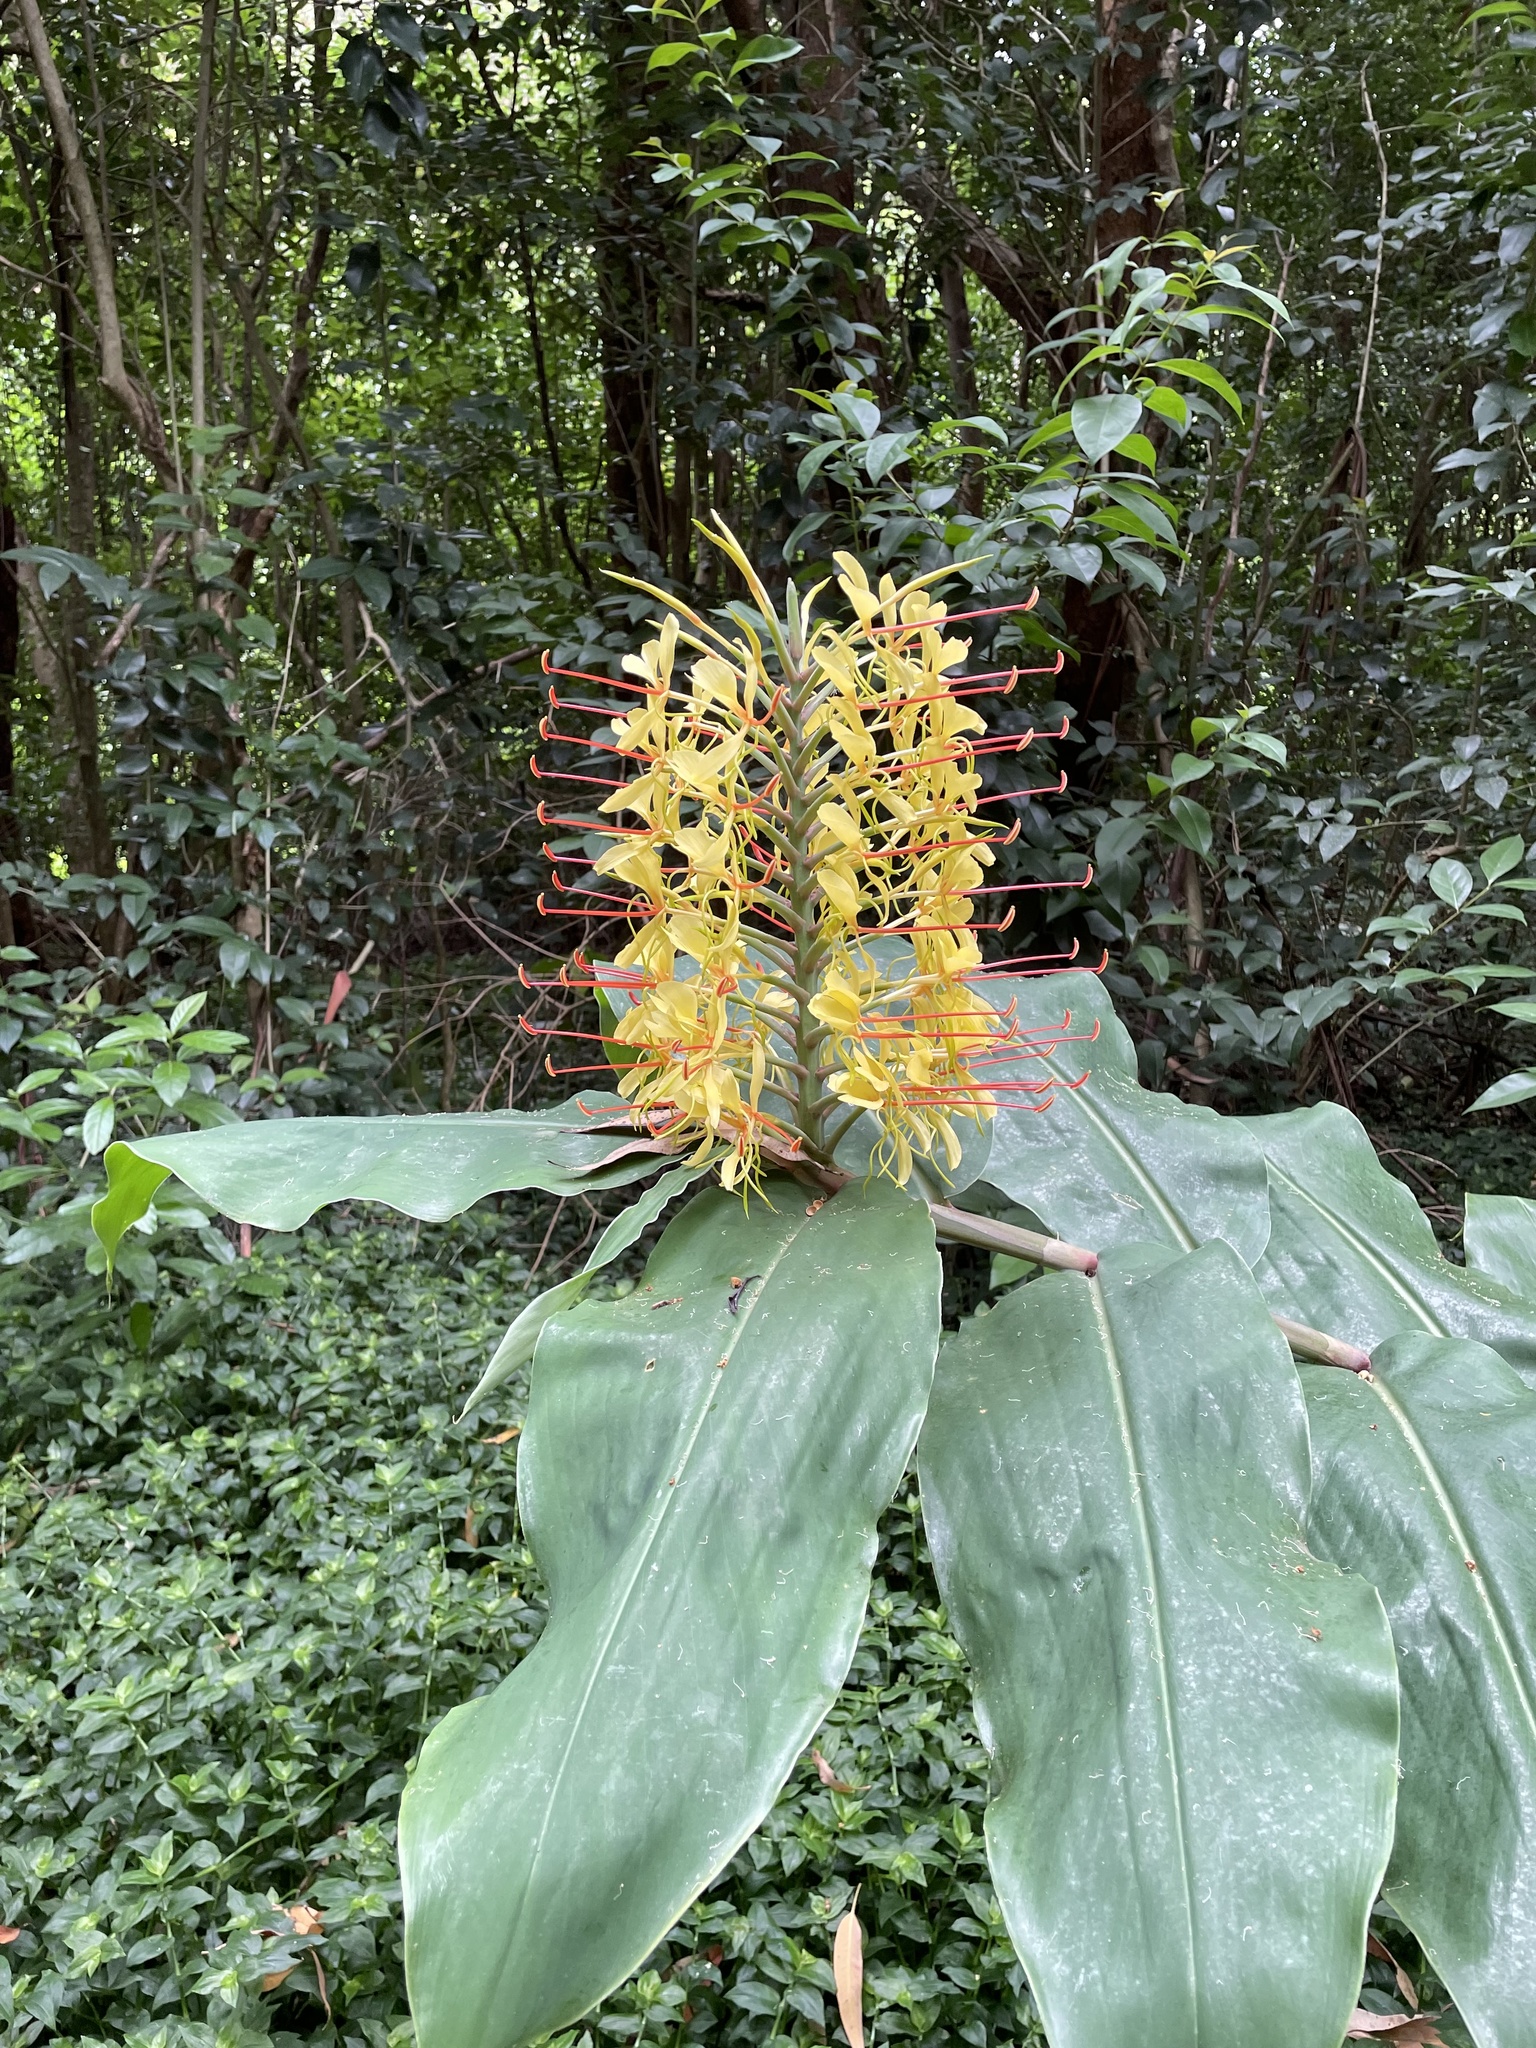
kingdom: Plantae
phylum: Tracheophyta
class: Liliopsida
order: Zingiberales
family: Zingiberaceae
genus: Hedychium
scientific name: Hedychium gardnerianum
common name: Himalayan ginger
